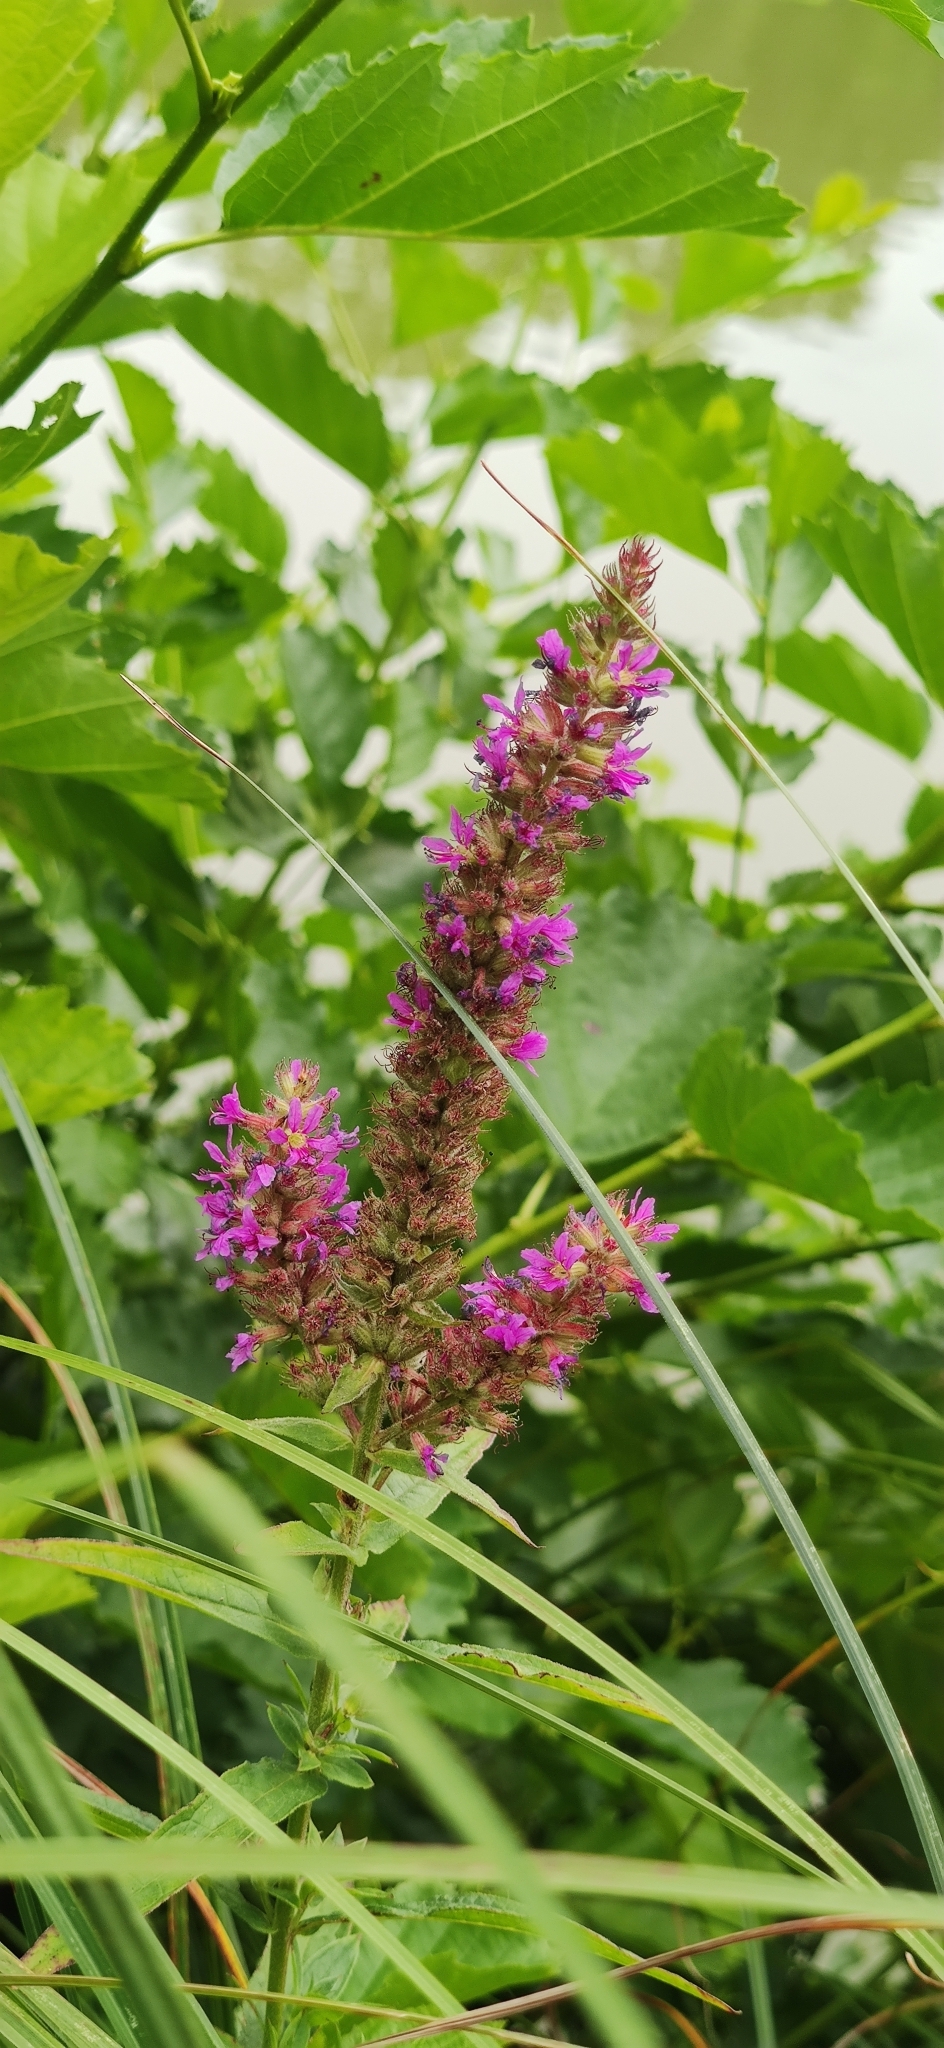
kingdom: Plantae
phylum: Tracheophyta
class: Magnoliopsida
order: Myrtales
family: Lythraceae
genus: Lythrum
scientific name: Lythrum salicaria
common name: Purple loosestrife
